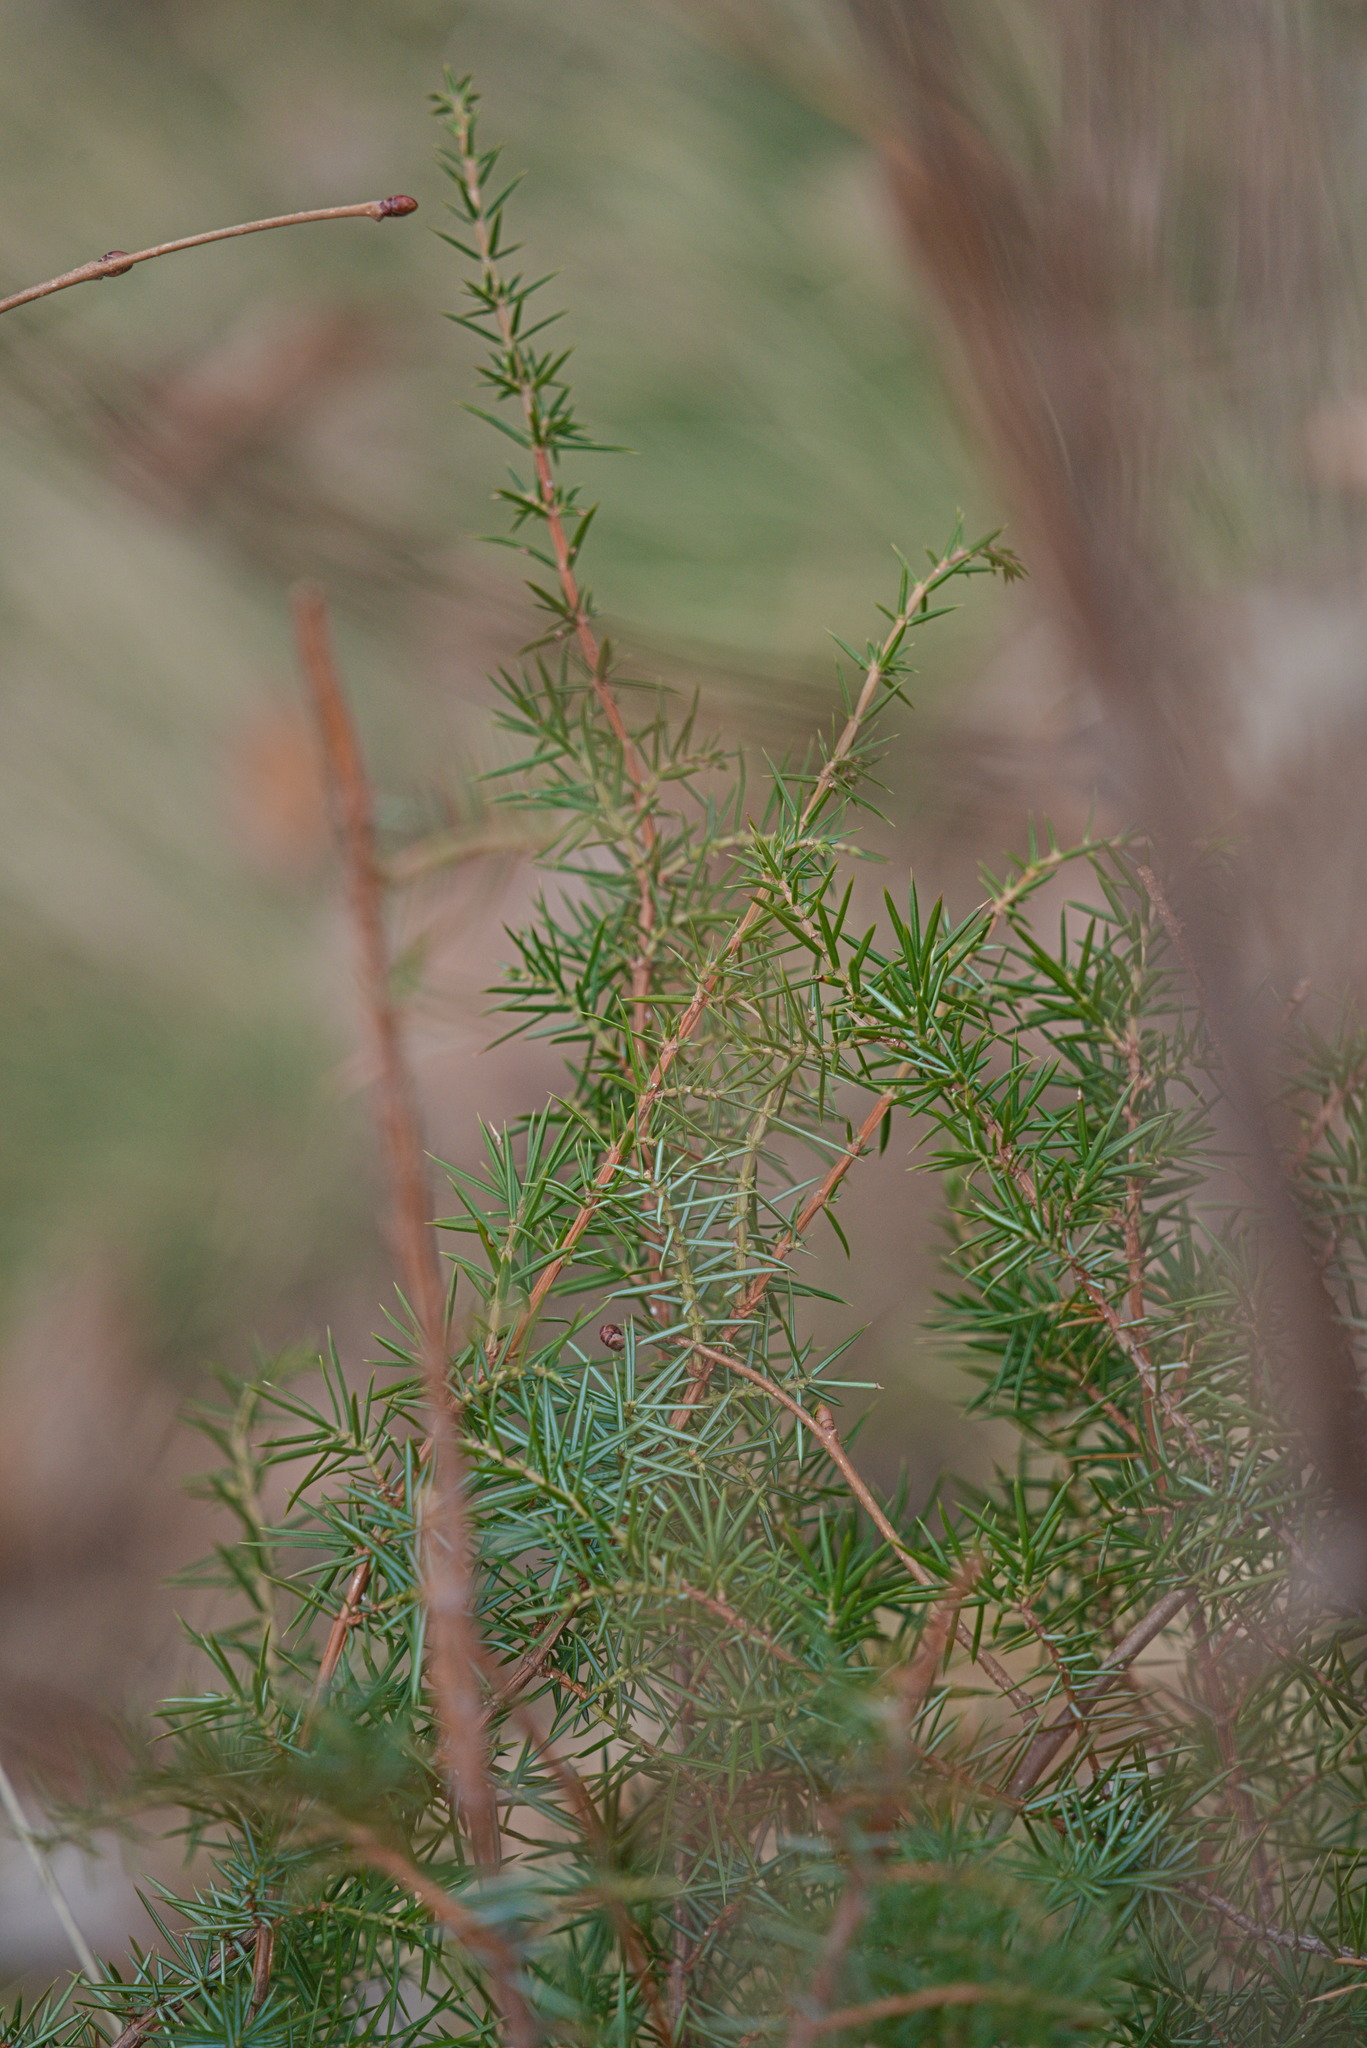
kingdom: Plantae
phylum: Tracheophyta
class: Pinopsida
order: Pinales
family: Cupressaceae
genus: Juniperus
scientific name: Juniperus communis
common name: Common juniper
